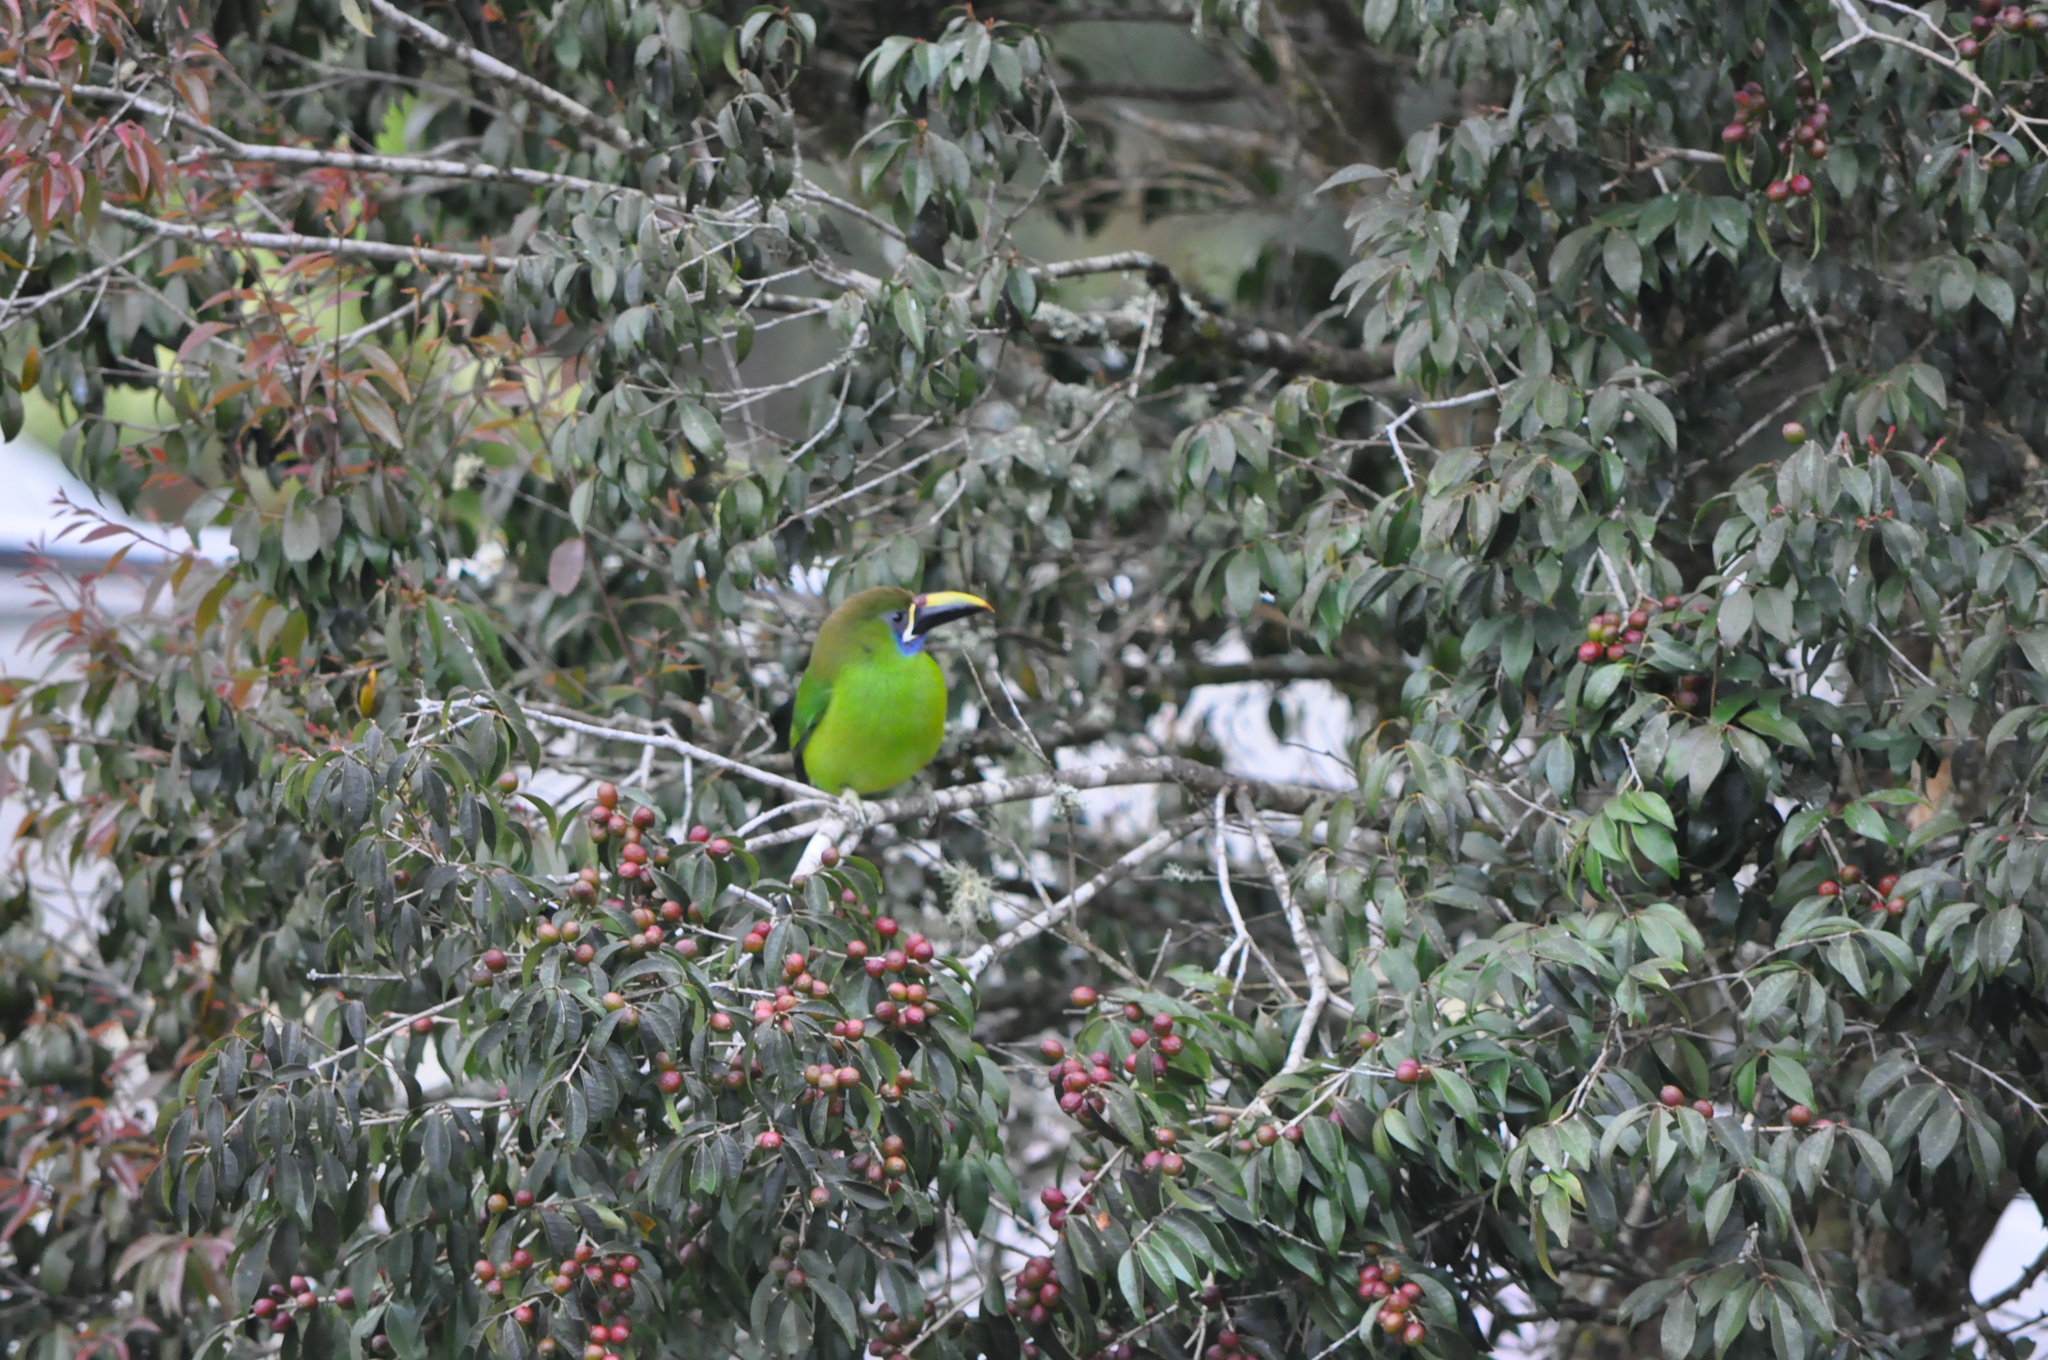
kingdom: Animalia
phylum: Chordata
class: Aves
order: Piciformes
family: Ramphastidae
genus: Aulacorhynchus
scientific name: Aulacorhynchus prasinus
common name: Emerald toucanet
